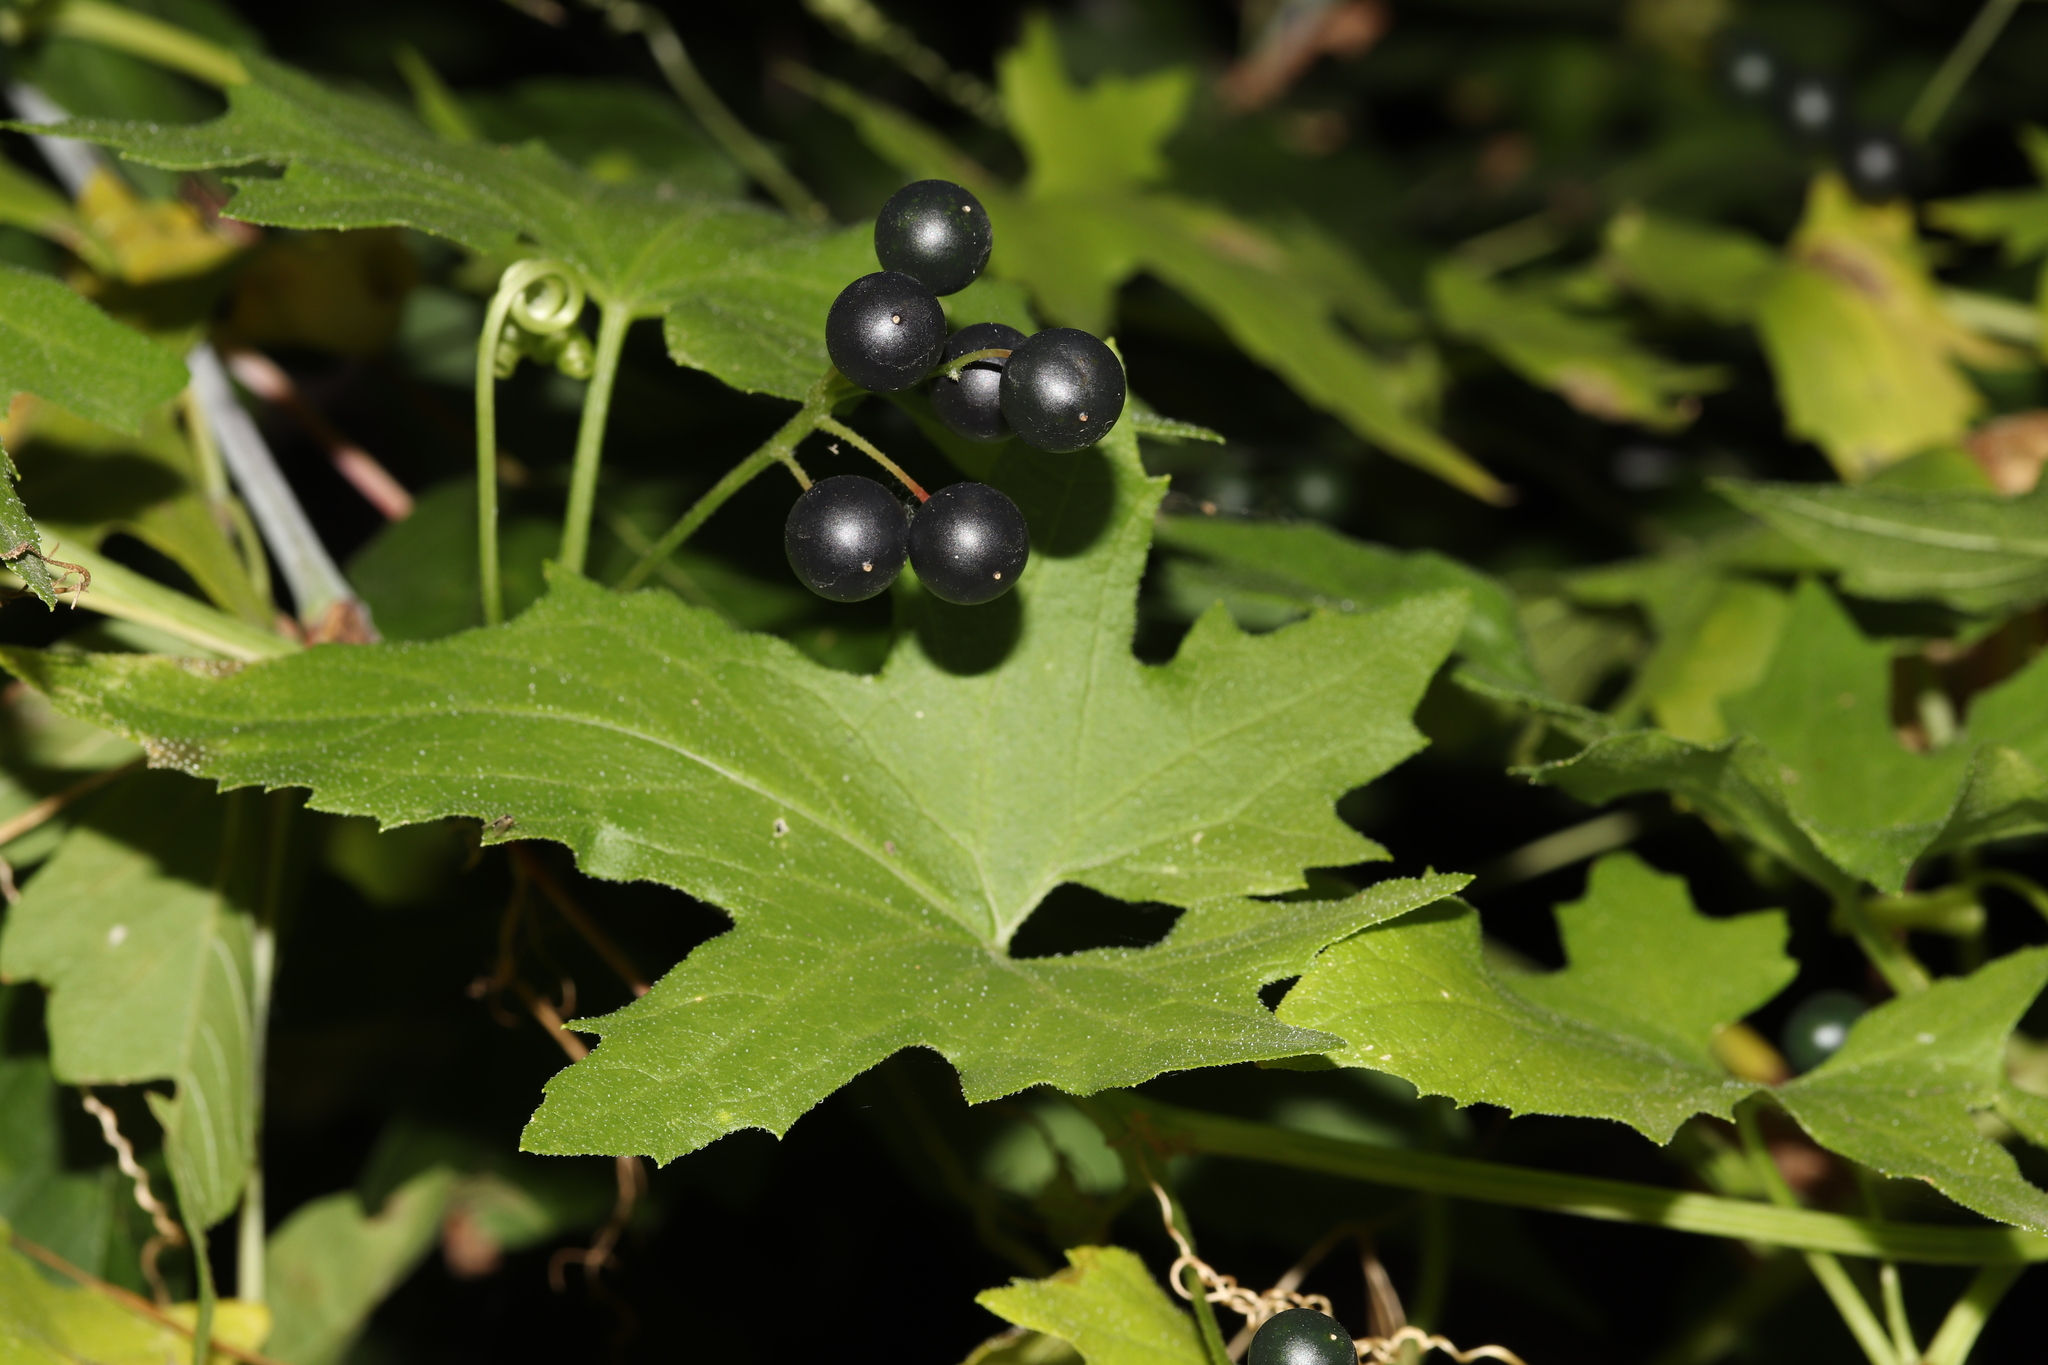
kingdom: Plantae
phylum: Tracheophyta
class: Magnoliopsida
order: Cucurbitales
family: Cucurbitaceae
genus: Bryonia
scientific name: Bryonia alba
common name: White bryony
